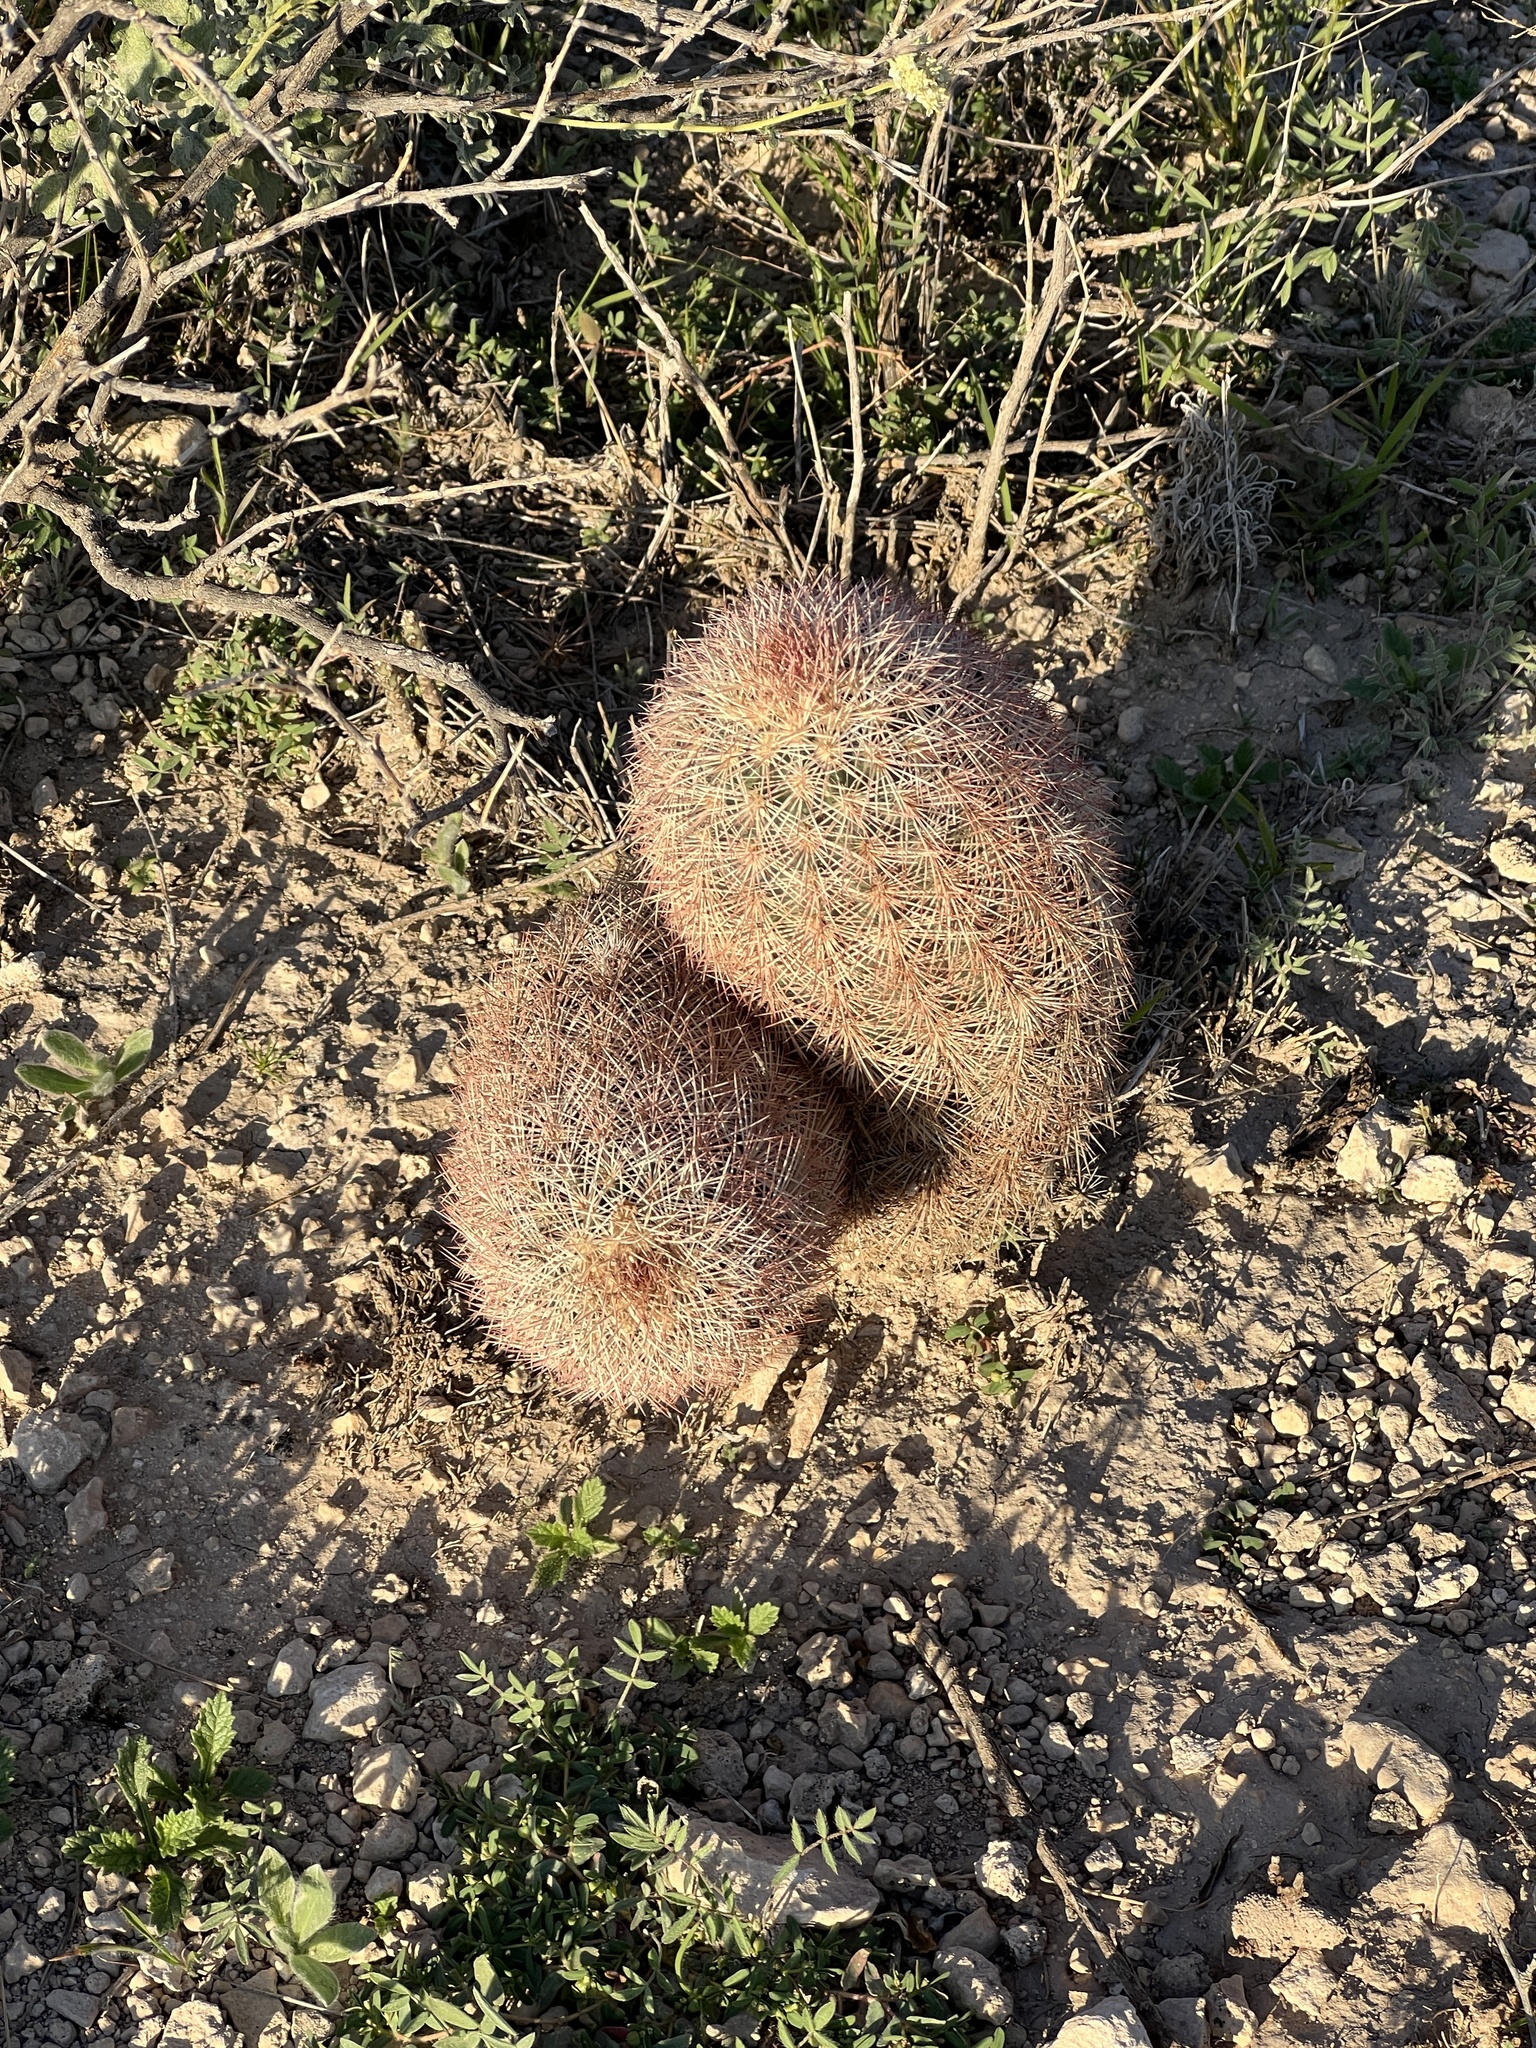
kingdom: Plantae
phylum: Tracheophyta
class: Magnoliopsida
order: Caryophyllales
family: Cactaceae
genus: Echinocereus
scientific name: Echinocereus dasyacanthus
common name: Spiny hedgehog cactus
